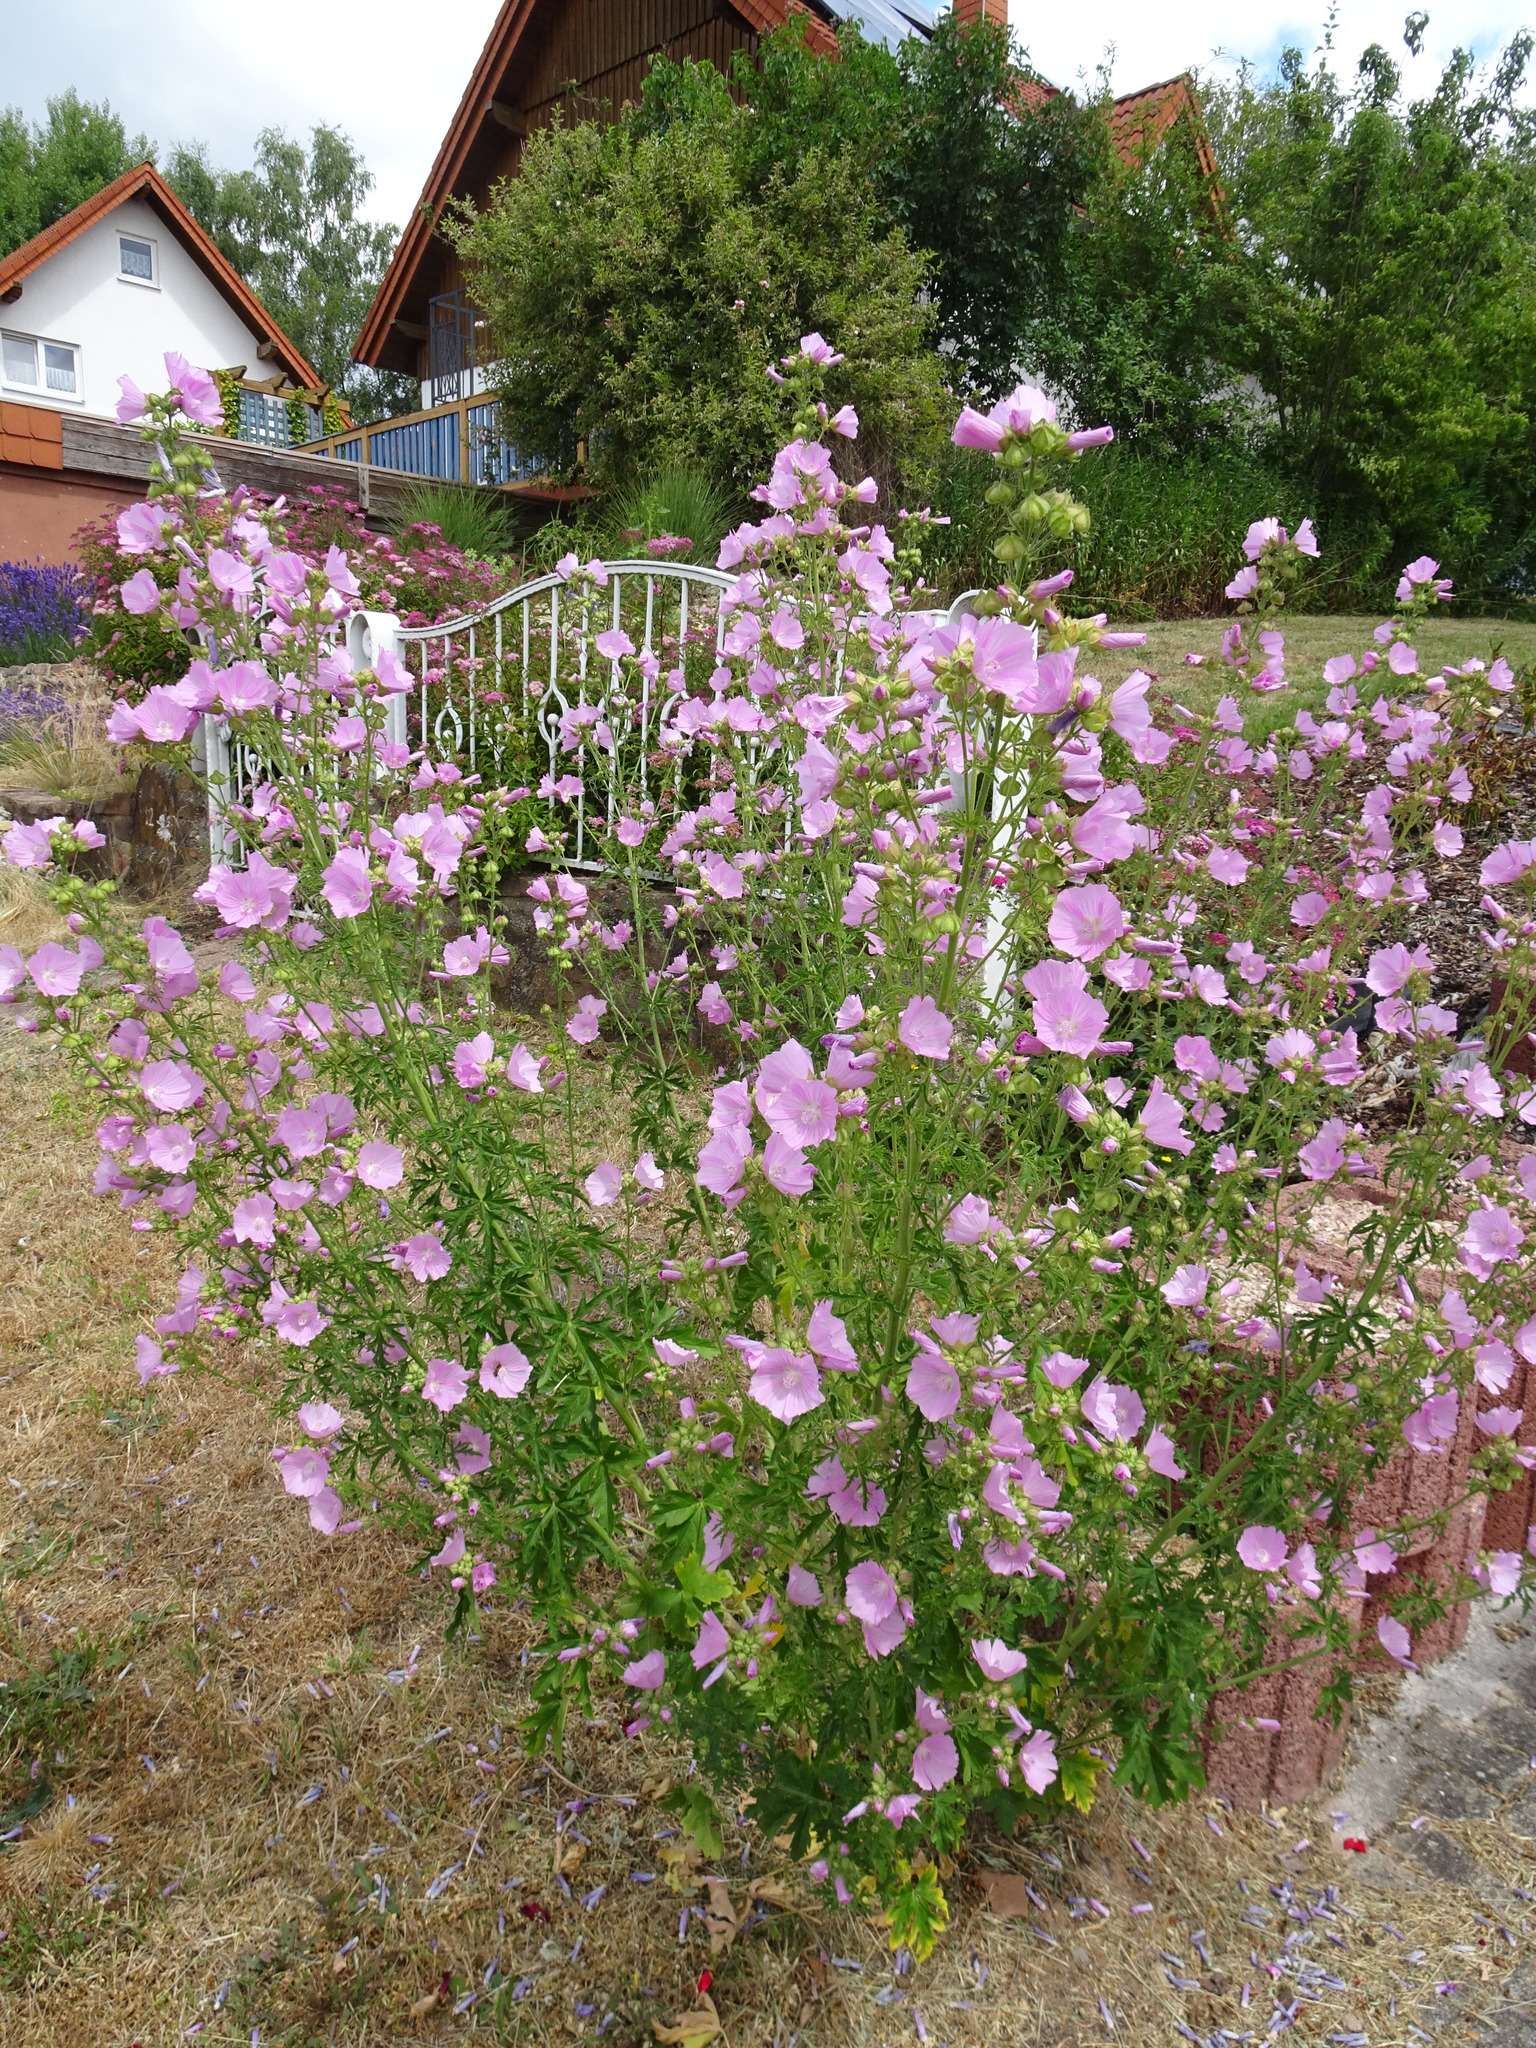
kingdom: Plantae
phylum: Tracheophyta
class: Magnoliopsida
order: Malvales
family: Malvaceae
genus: Malva
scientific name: Malva alcea
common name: Greater musk-mallow
